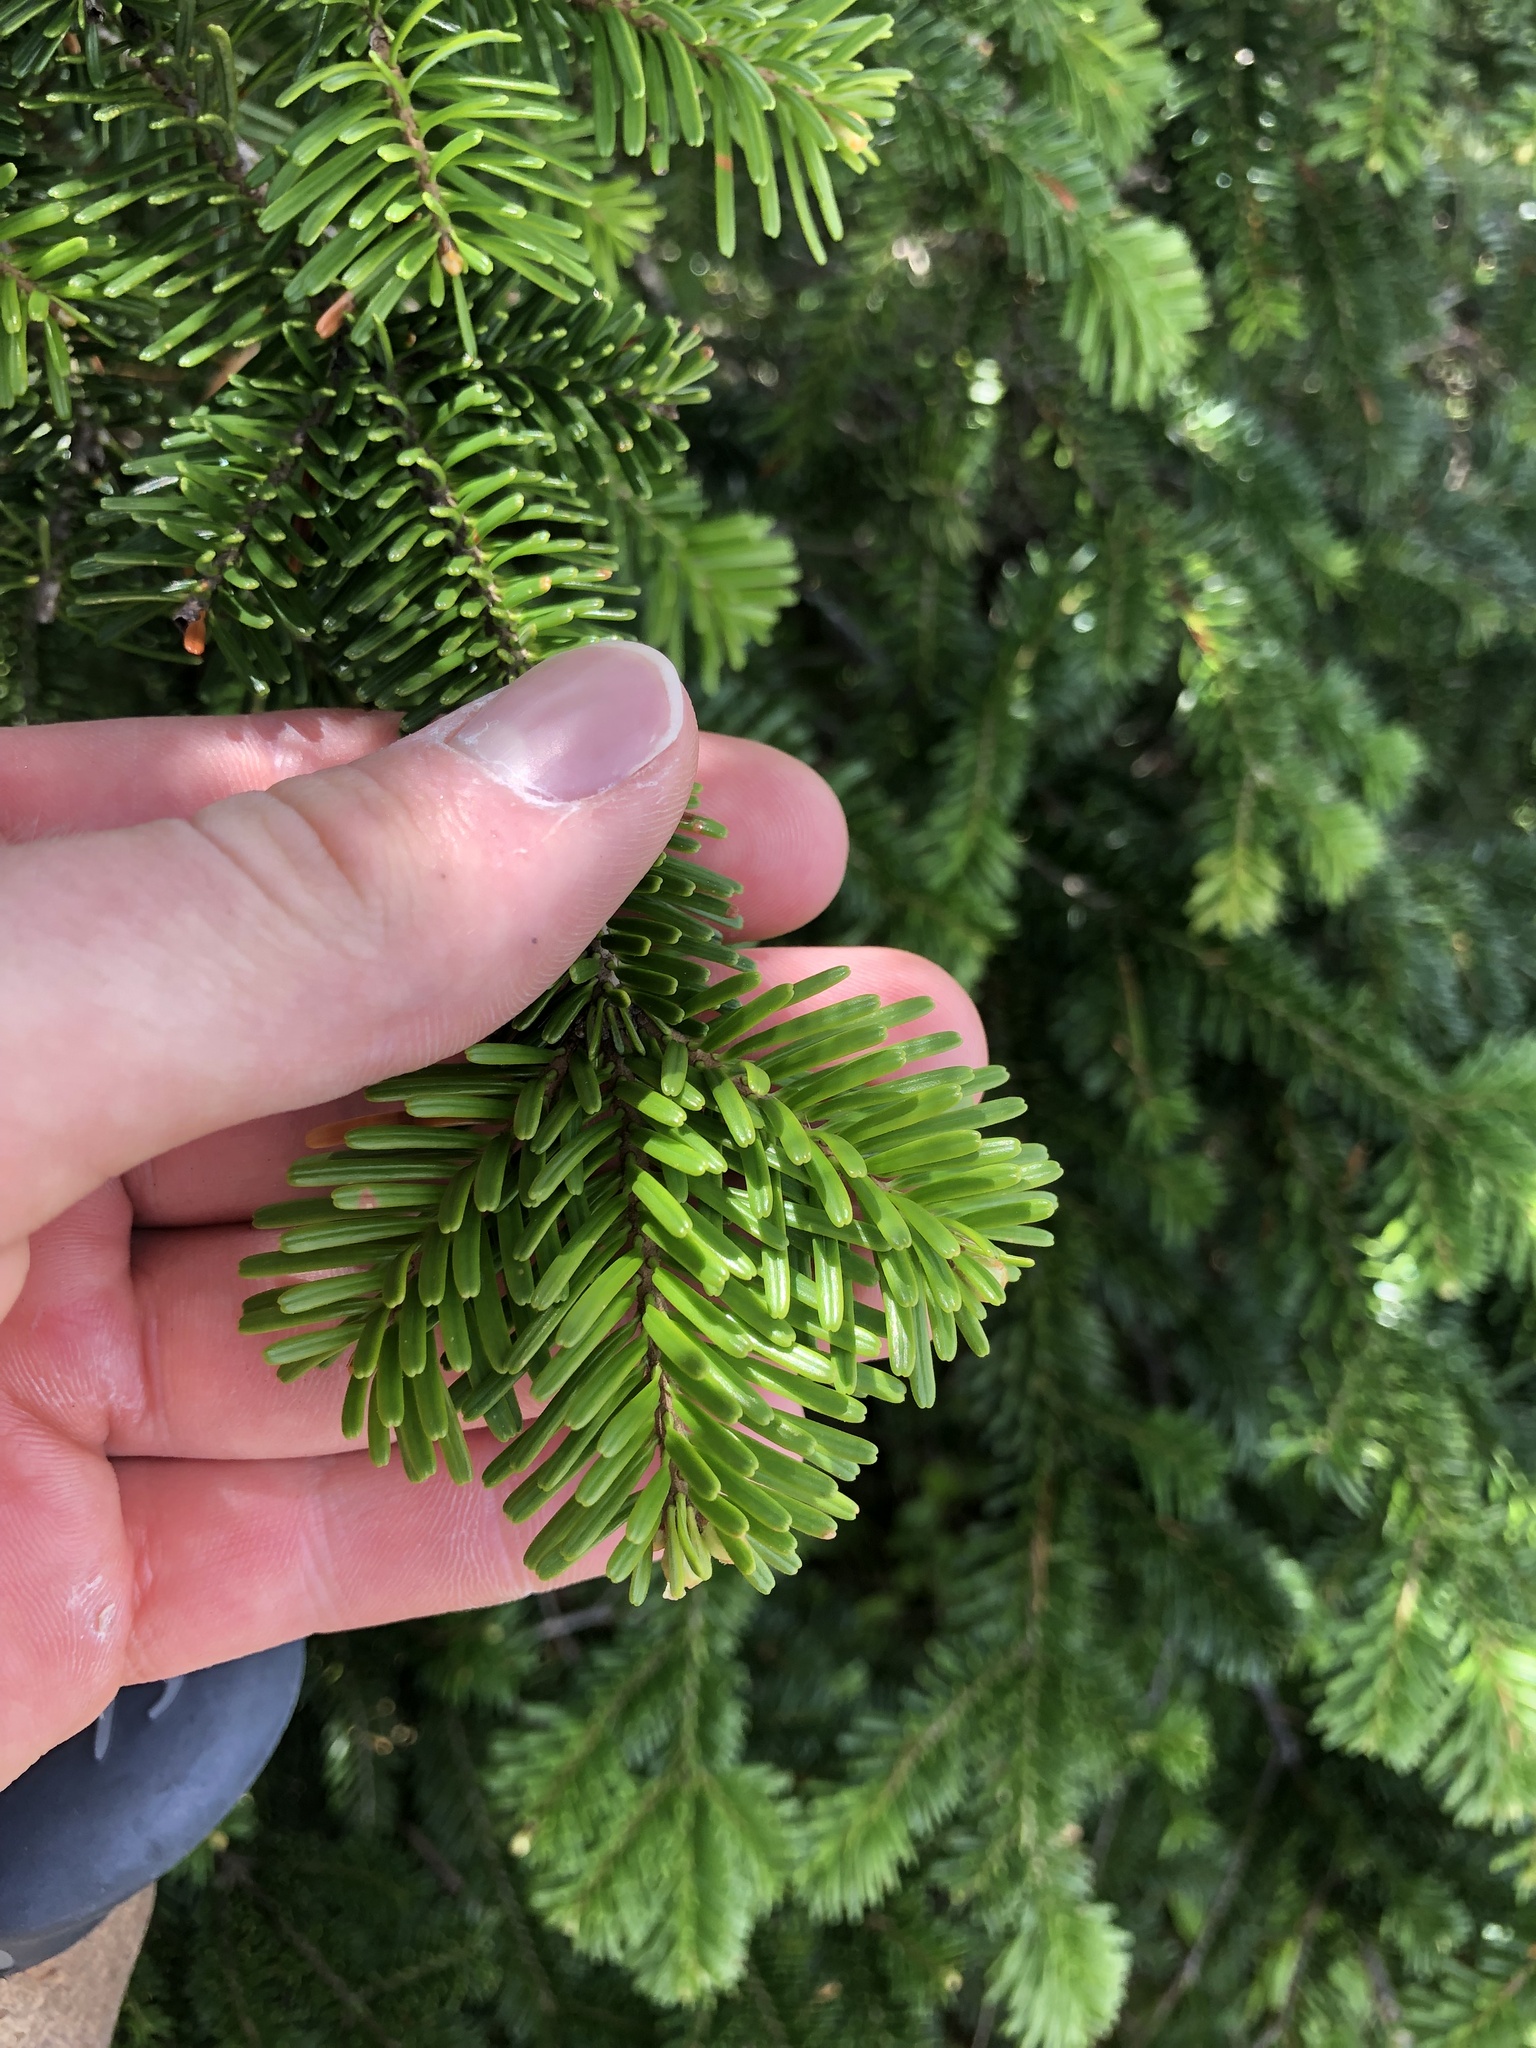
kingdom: Plantae
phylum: Tracheophyta
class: Pinopsida
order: Pinales
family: Pinaceae
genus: Abies
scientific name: Abies amabilis
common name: Pacific silver fir
